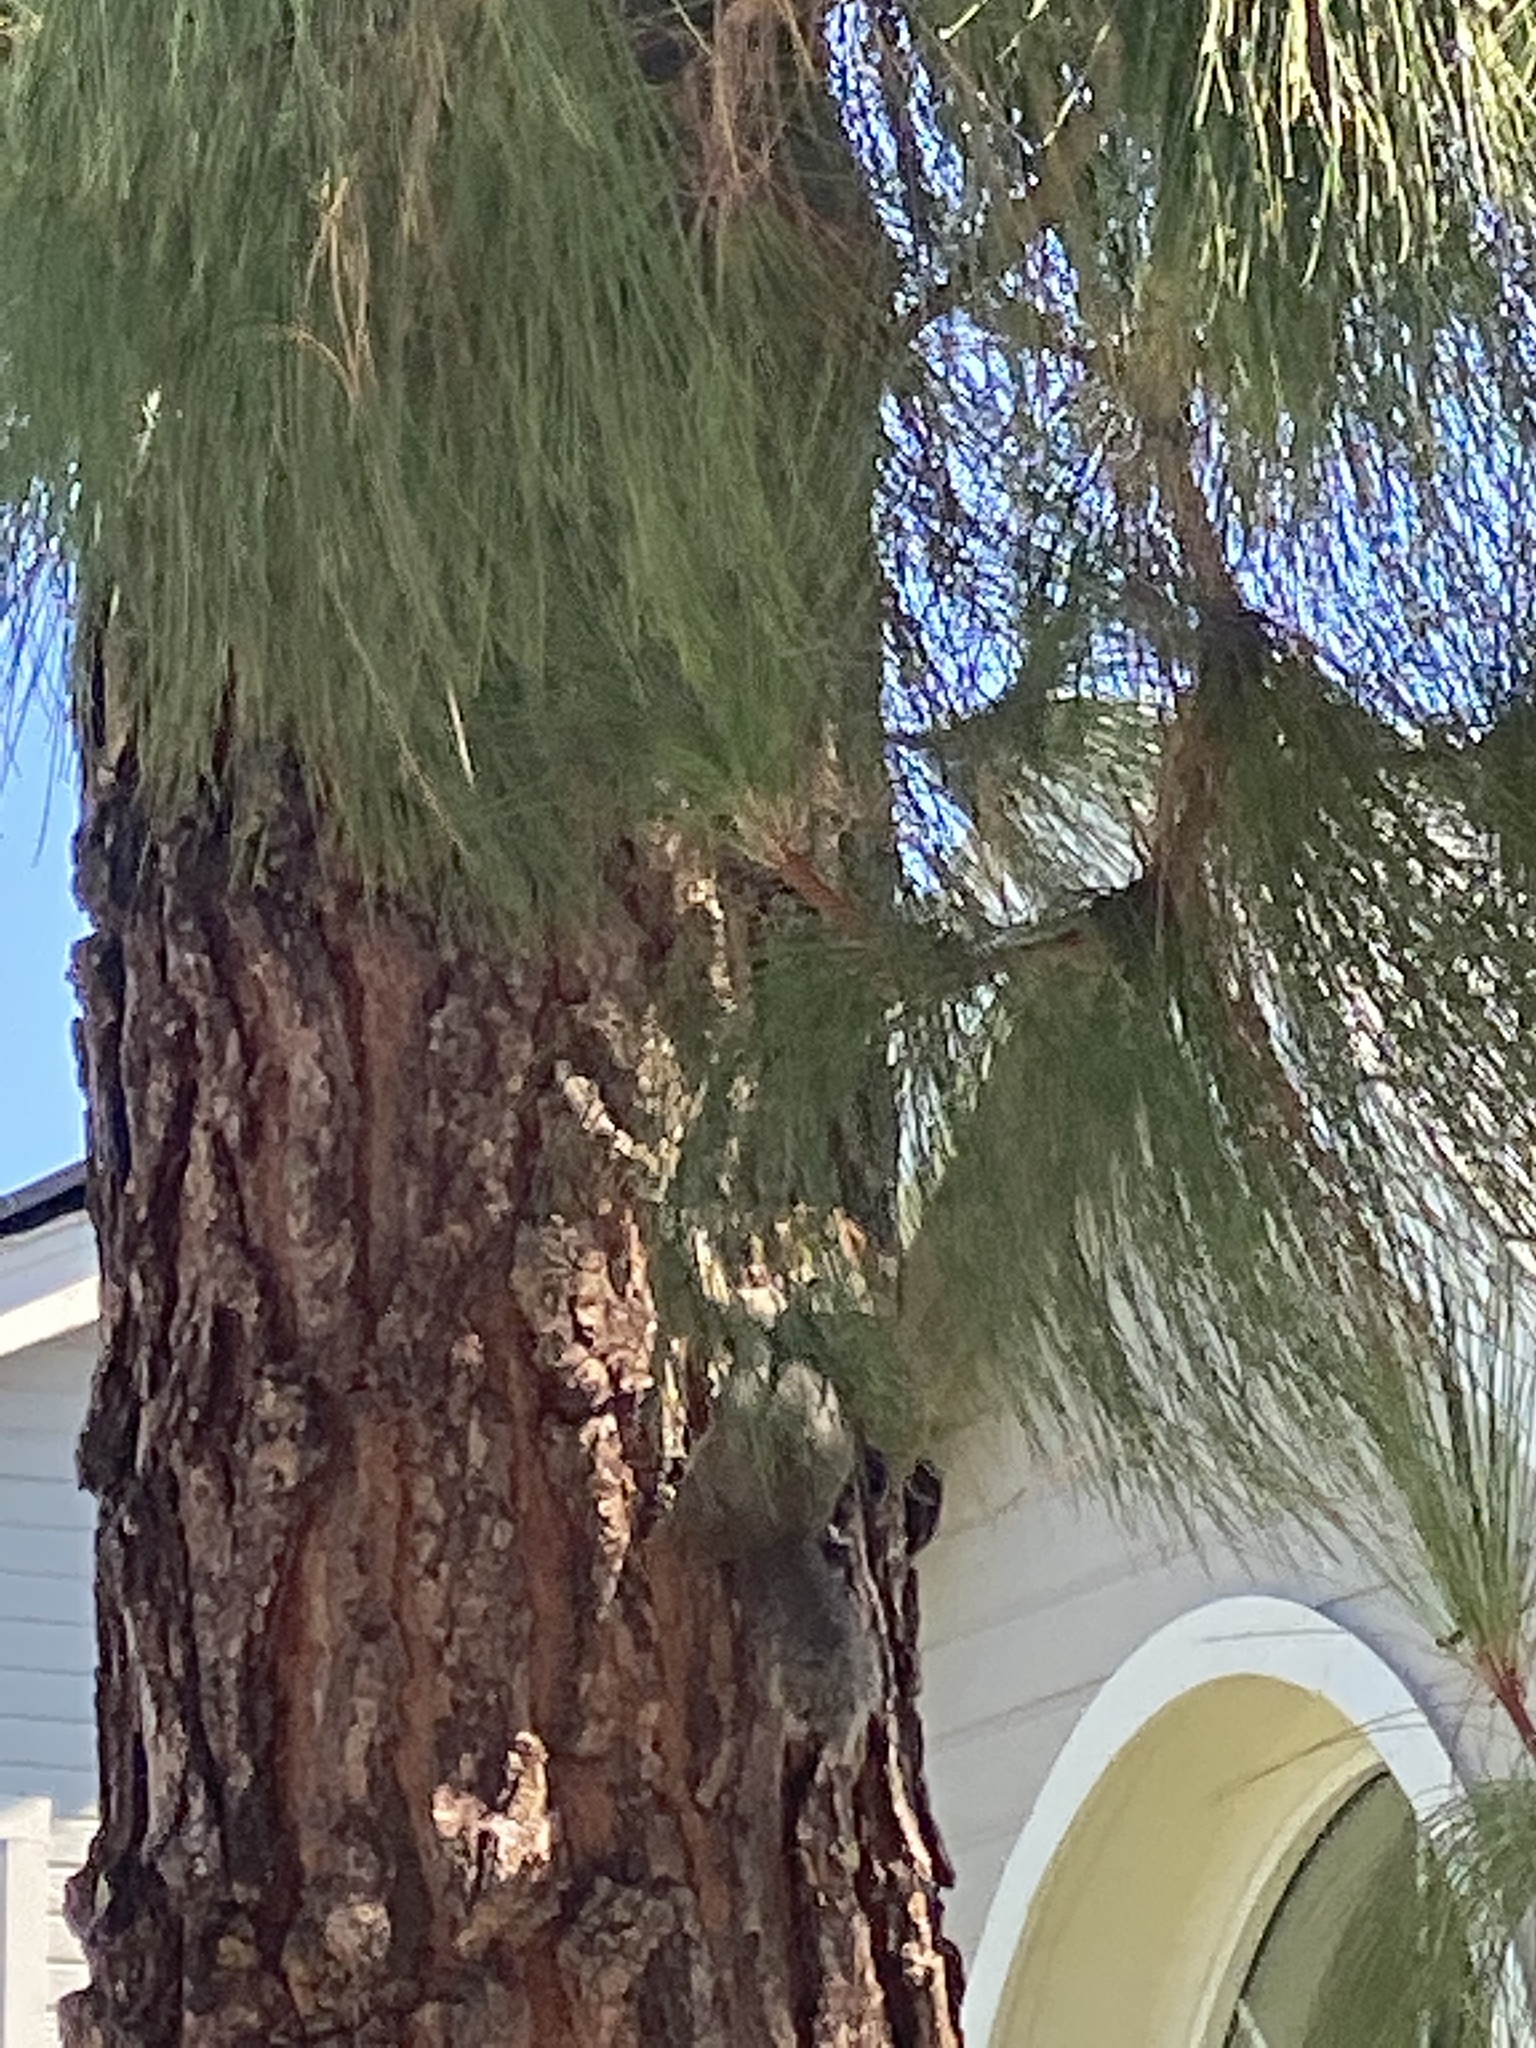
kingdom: Animalia
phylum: Chordata
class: Mammalia
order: Rodentia
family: Sciuridae
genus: Sciurus
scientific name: Sciurus carolinensis
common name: Eastern gray squirrel
